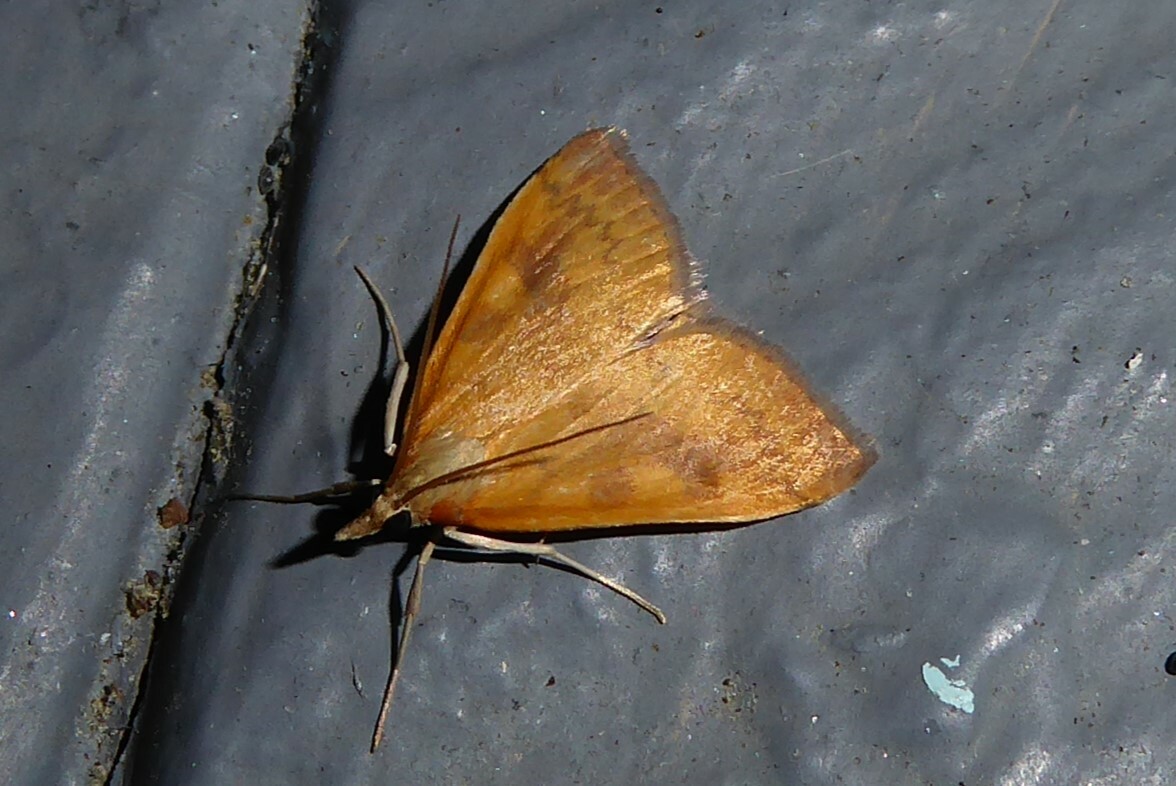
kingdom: Animalia
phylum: Arthropoda
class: Insecta
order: Lepidoptera
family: Crambidae
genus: Udea
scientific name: Udea Mnesictena flavidalis
